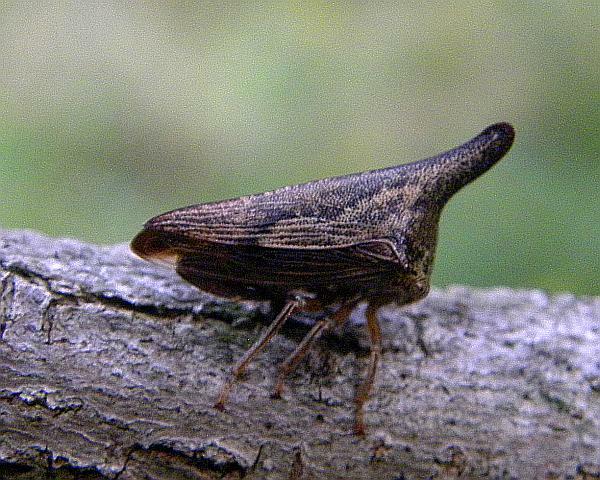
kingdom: Animalia
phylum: Arthropoda
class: Insecta
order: Hemiptera
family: Membracidae
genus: Thelia
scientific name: Thelia bimaculata
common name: Locust treehopper
